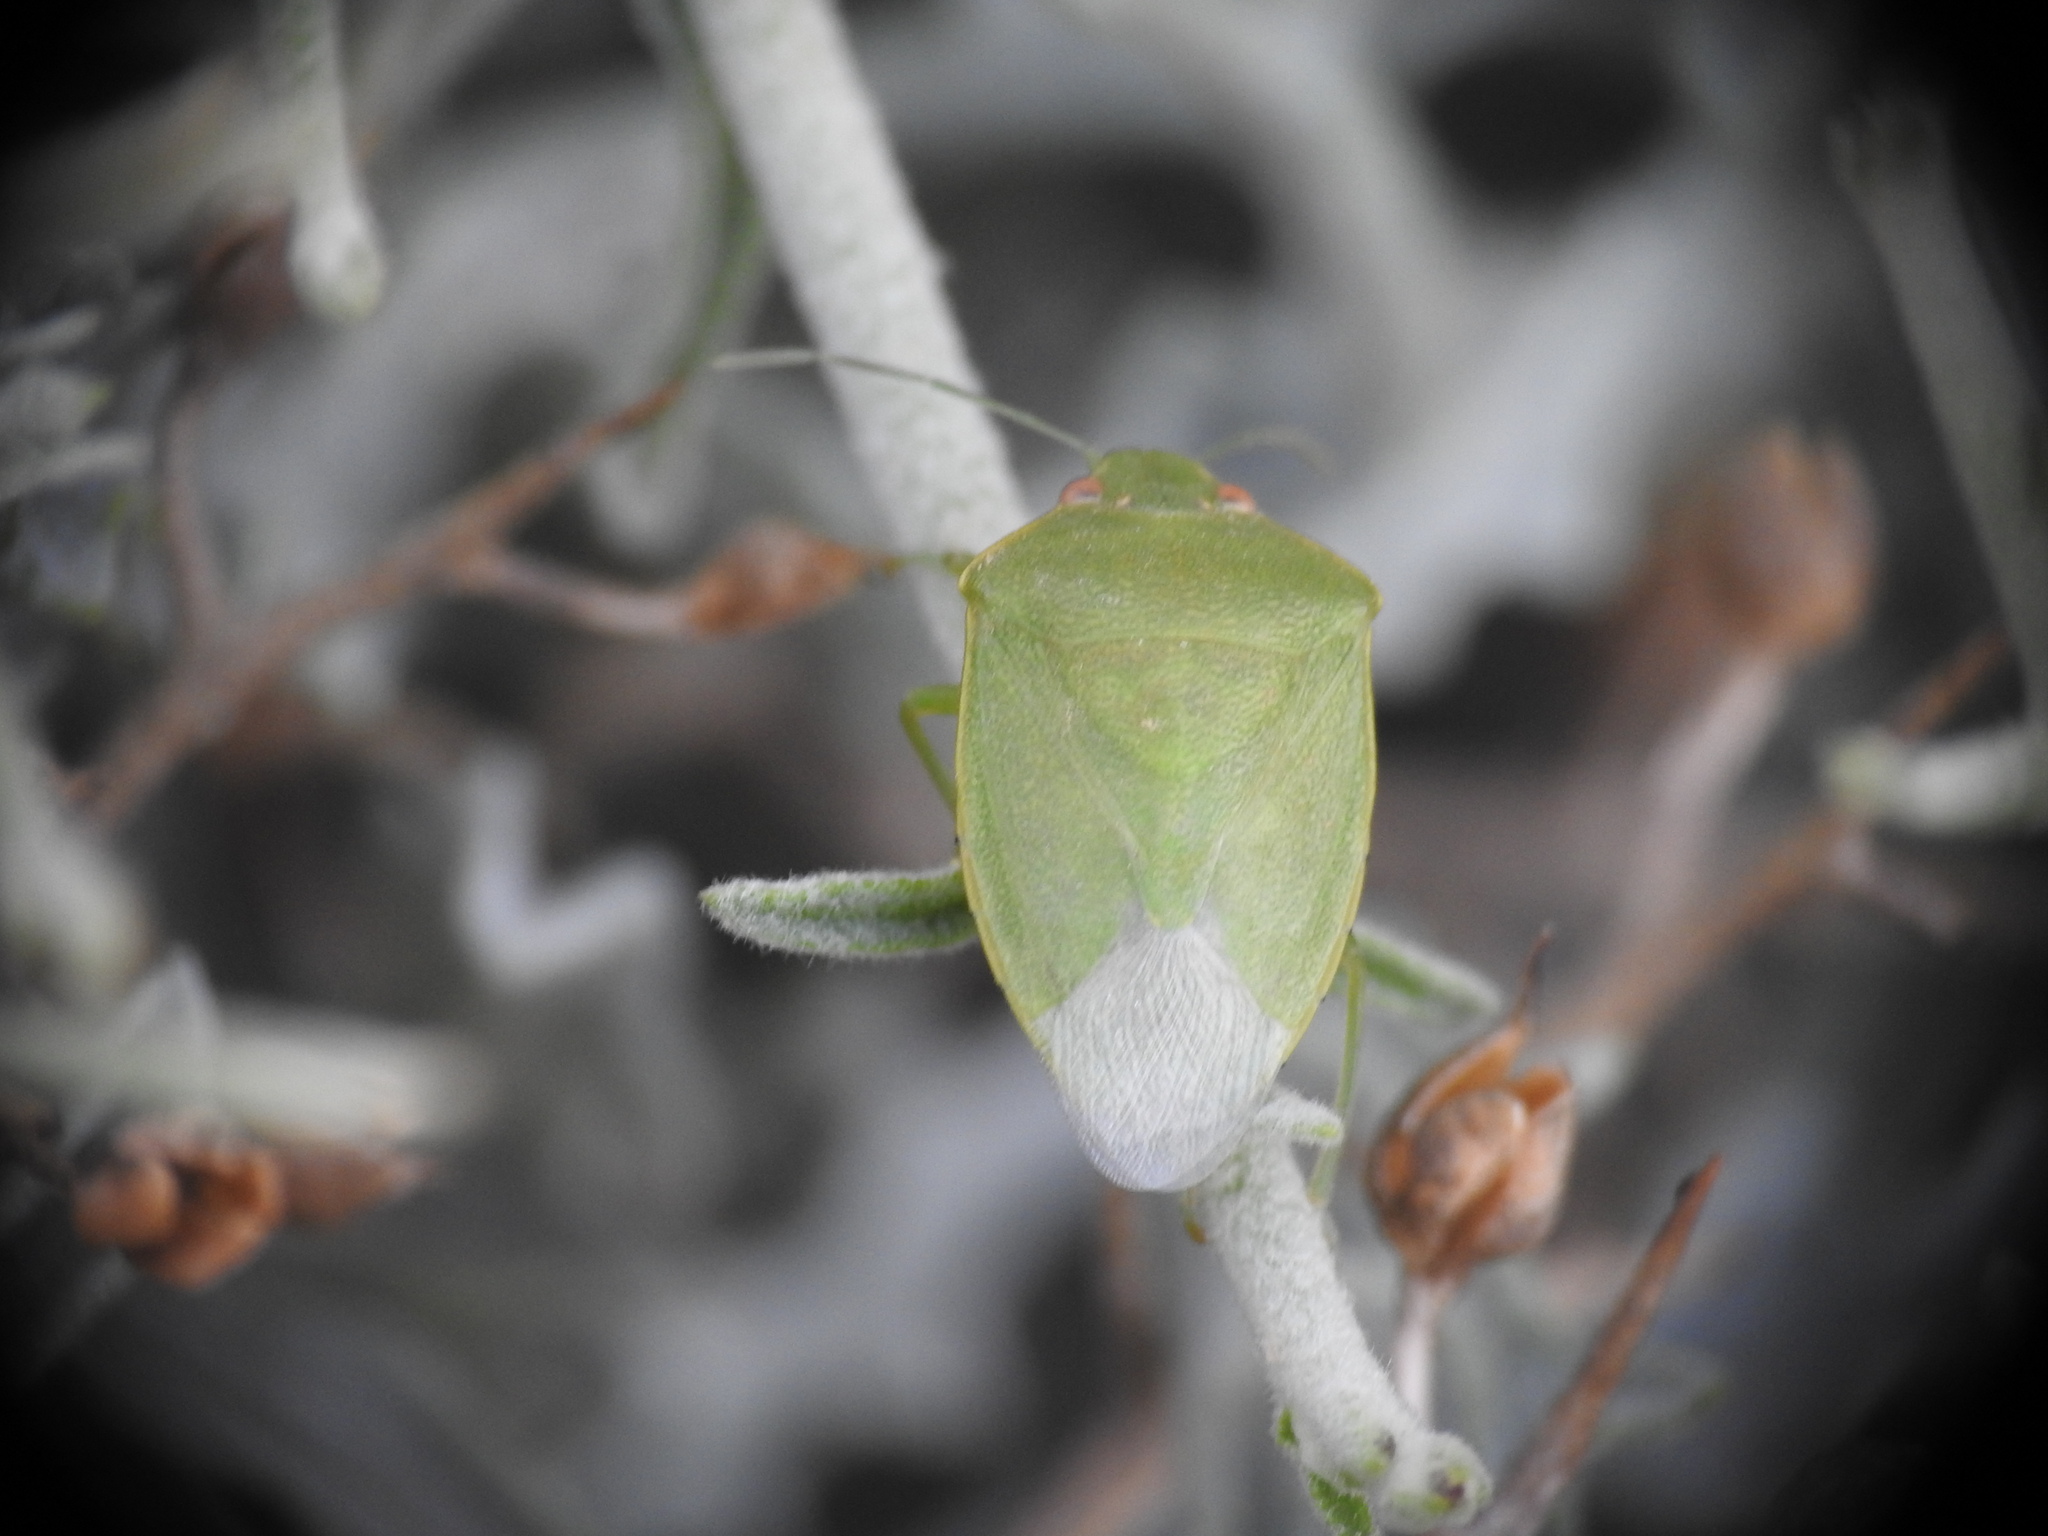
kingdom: Animalia
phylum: Arthropoda
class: Insecta
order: Hemiptera
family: Pentatomidae
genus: Acrosternum
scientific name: Acrosternum millierei
